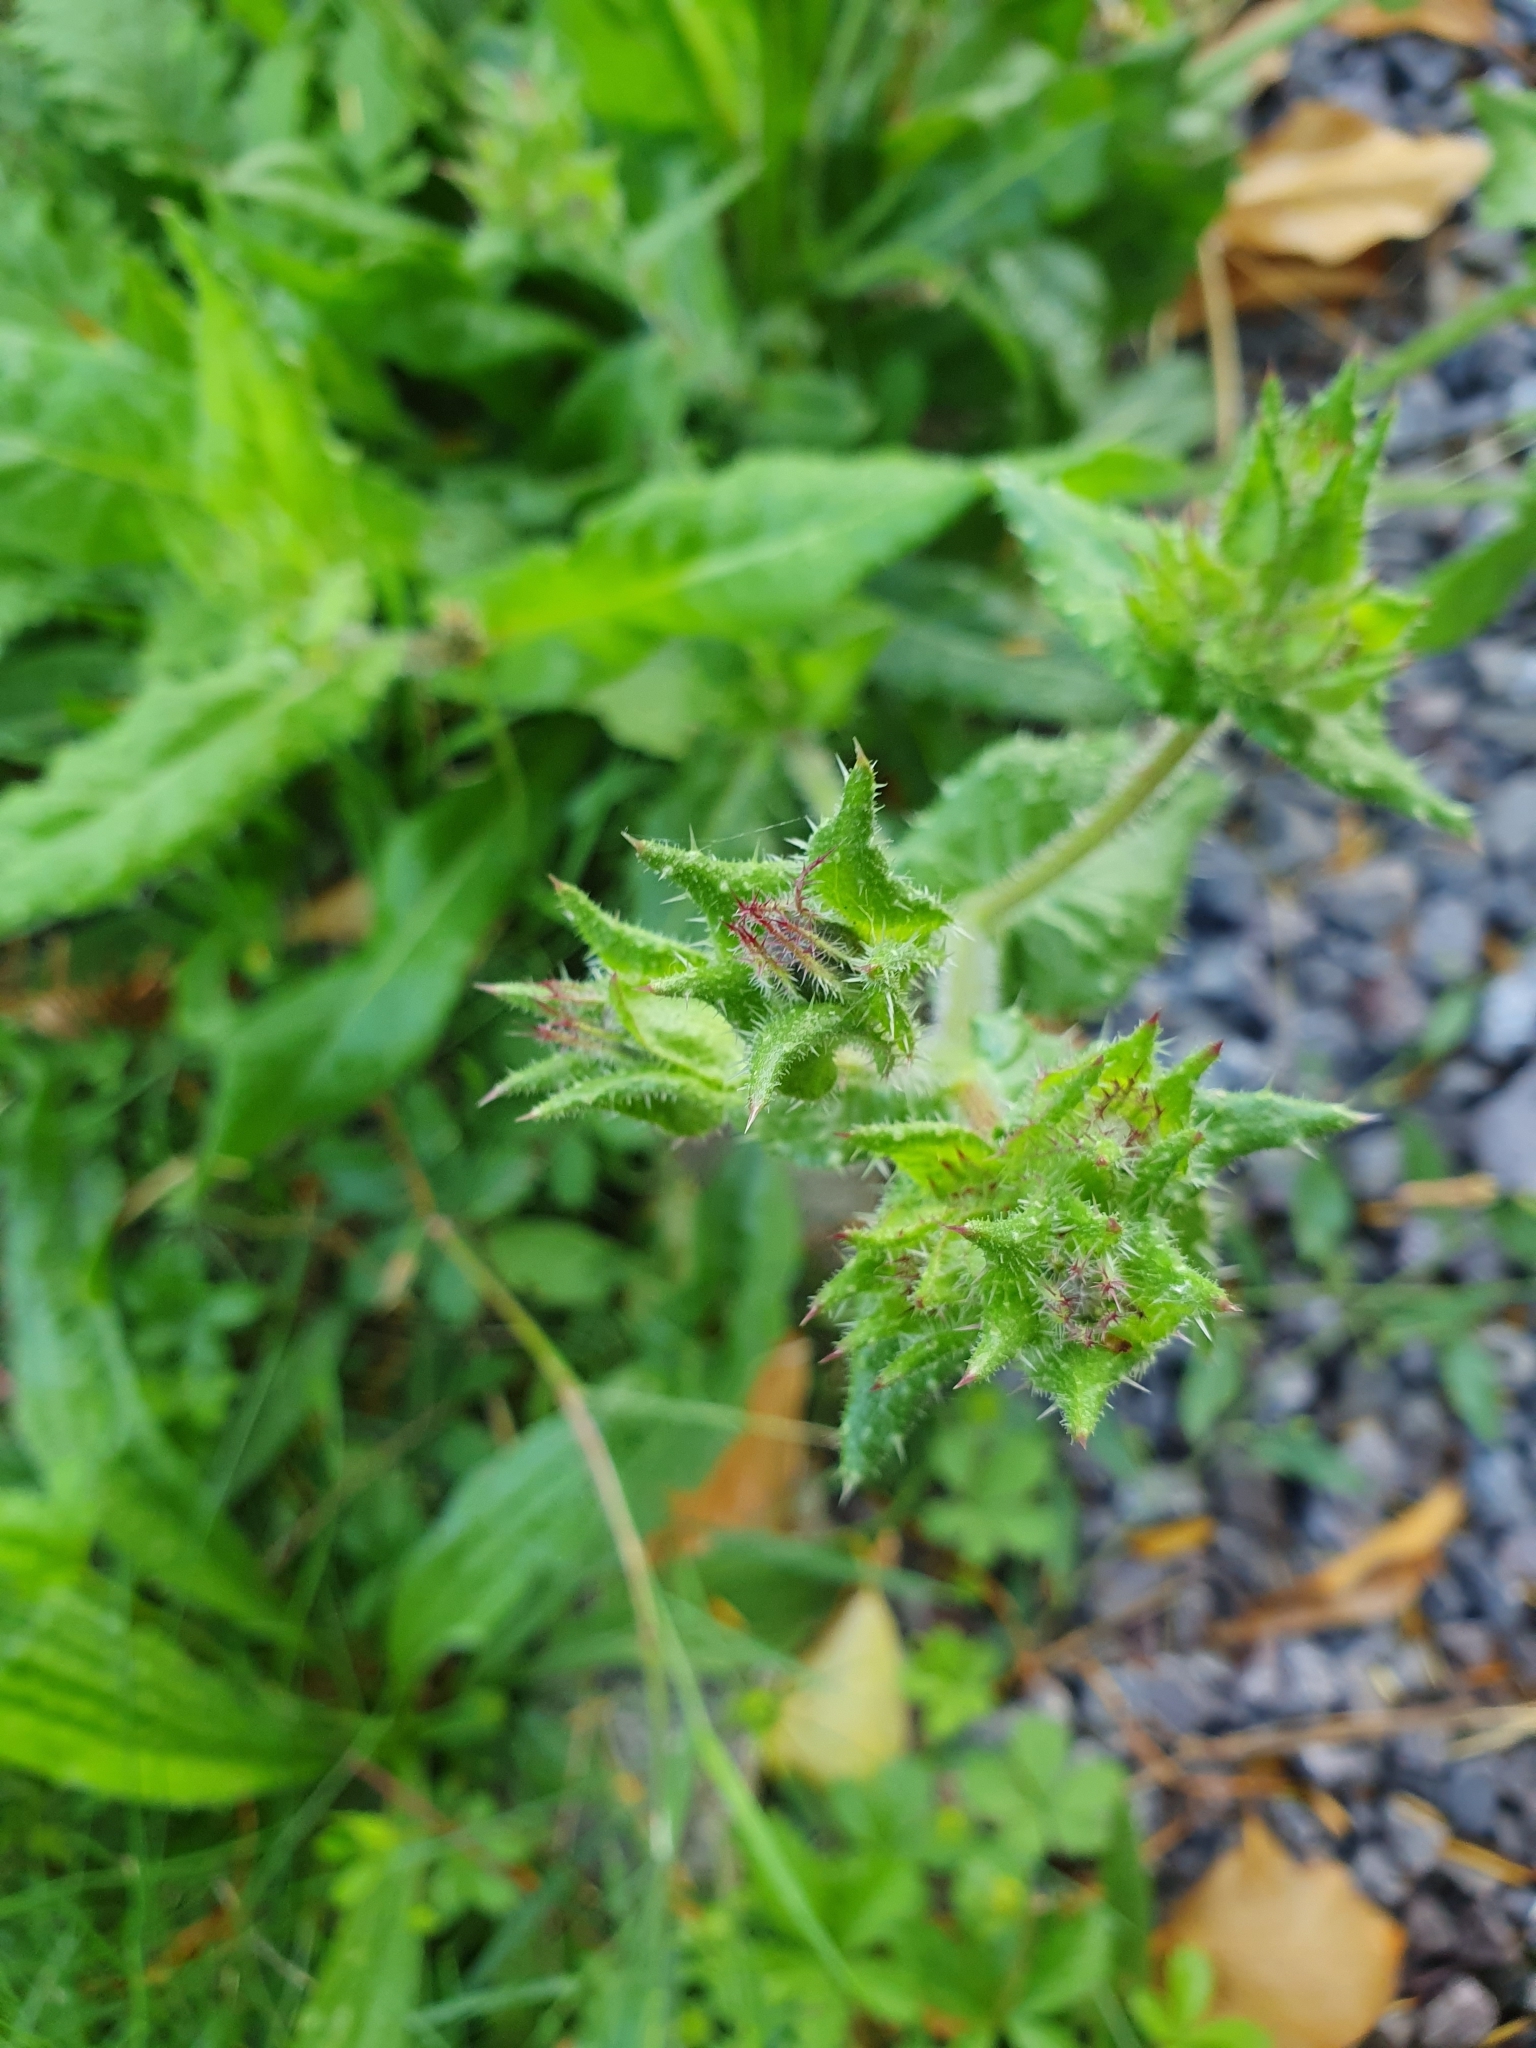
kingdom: Plantae
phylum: Tracheophyta
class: Magnoliopsida
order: Asterales
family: Asteraceae
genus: Helminthotheca
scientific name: Helminthotheca echioides
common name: Ox-tongue
